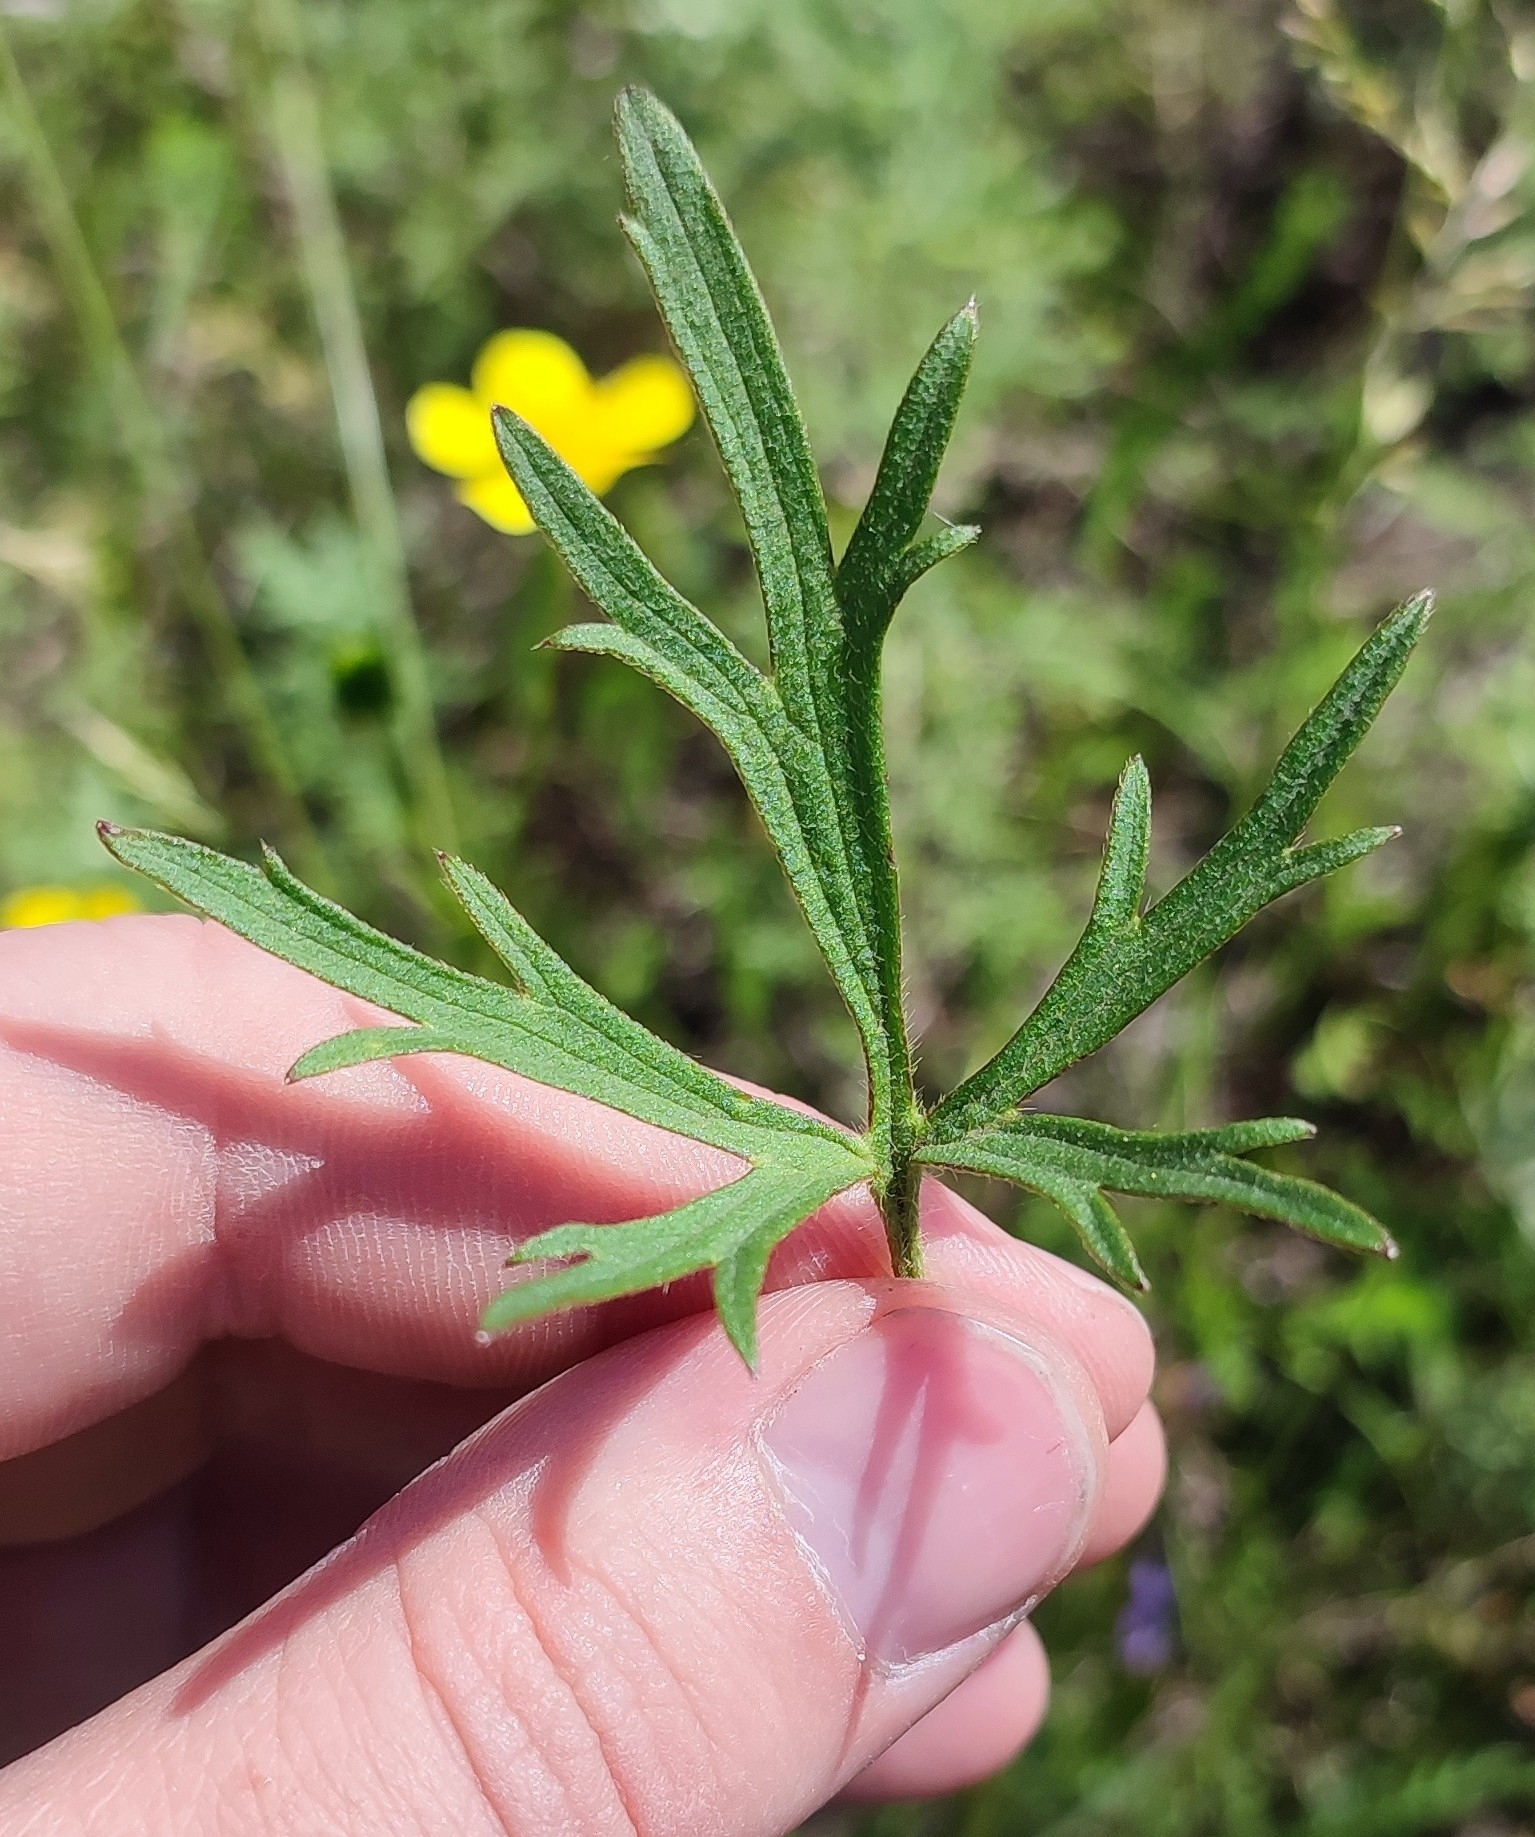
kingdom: Plantae
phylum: Tracheophyta
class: Magnoliopsida
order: Ranunculales
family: Ranunculaceae
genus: Ranunculus
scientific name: Ranunculus polyanthemos
